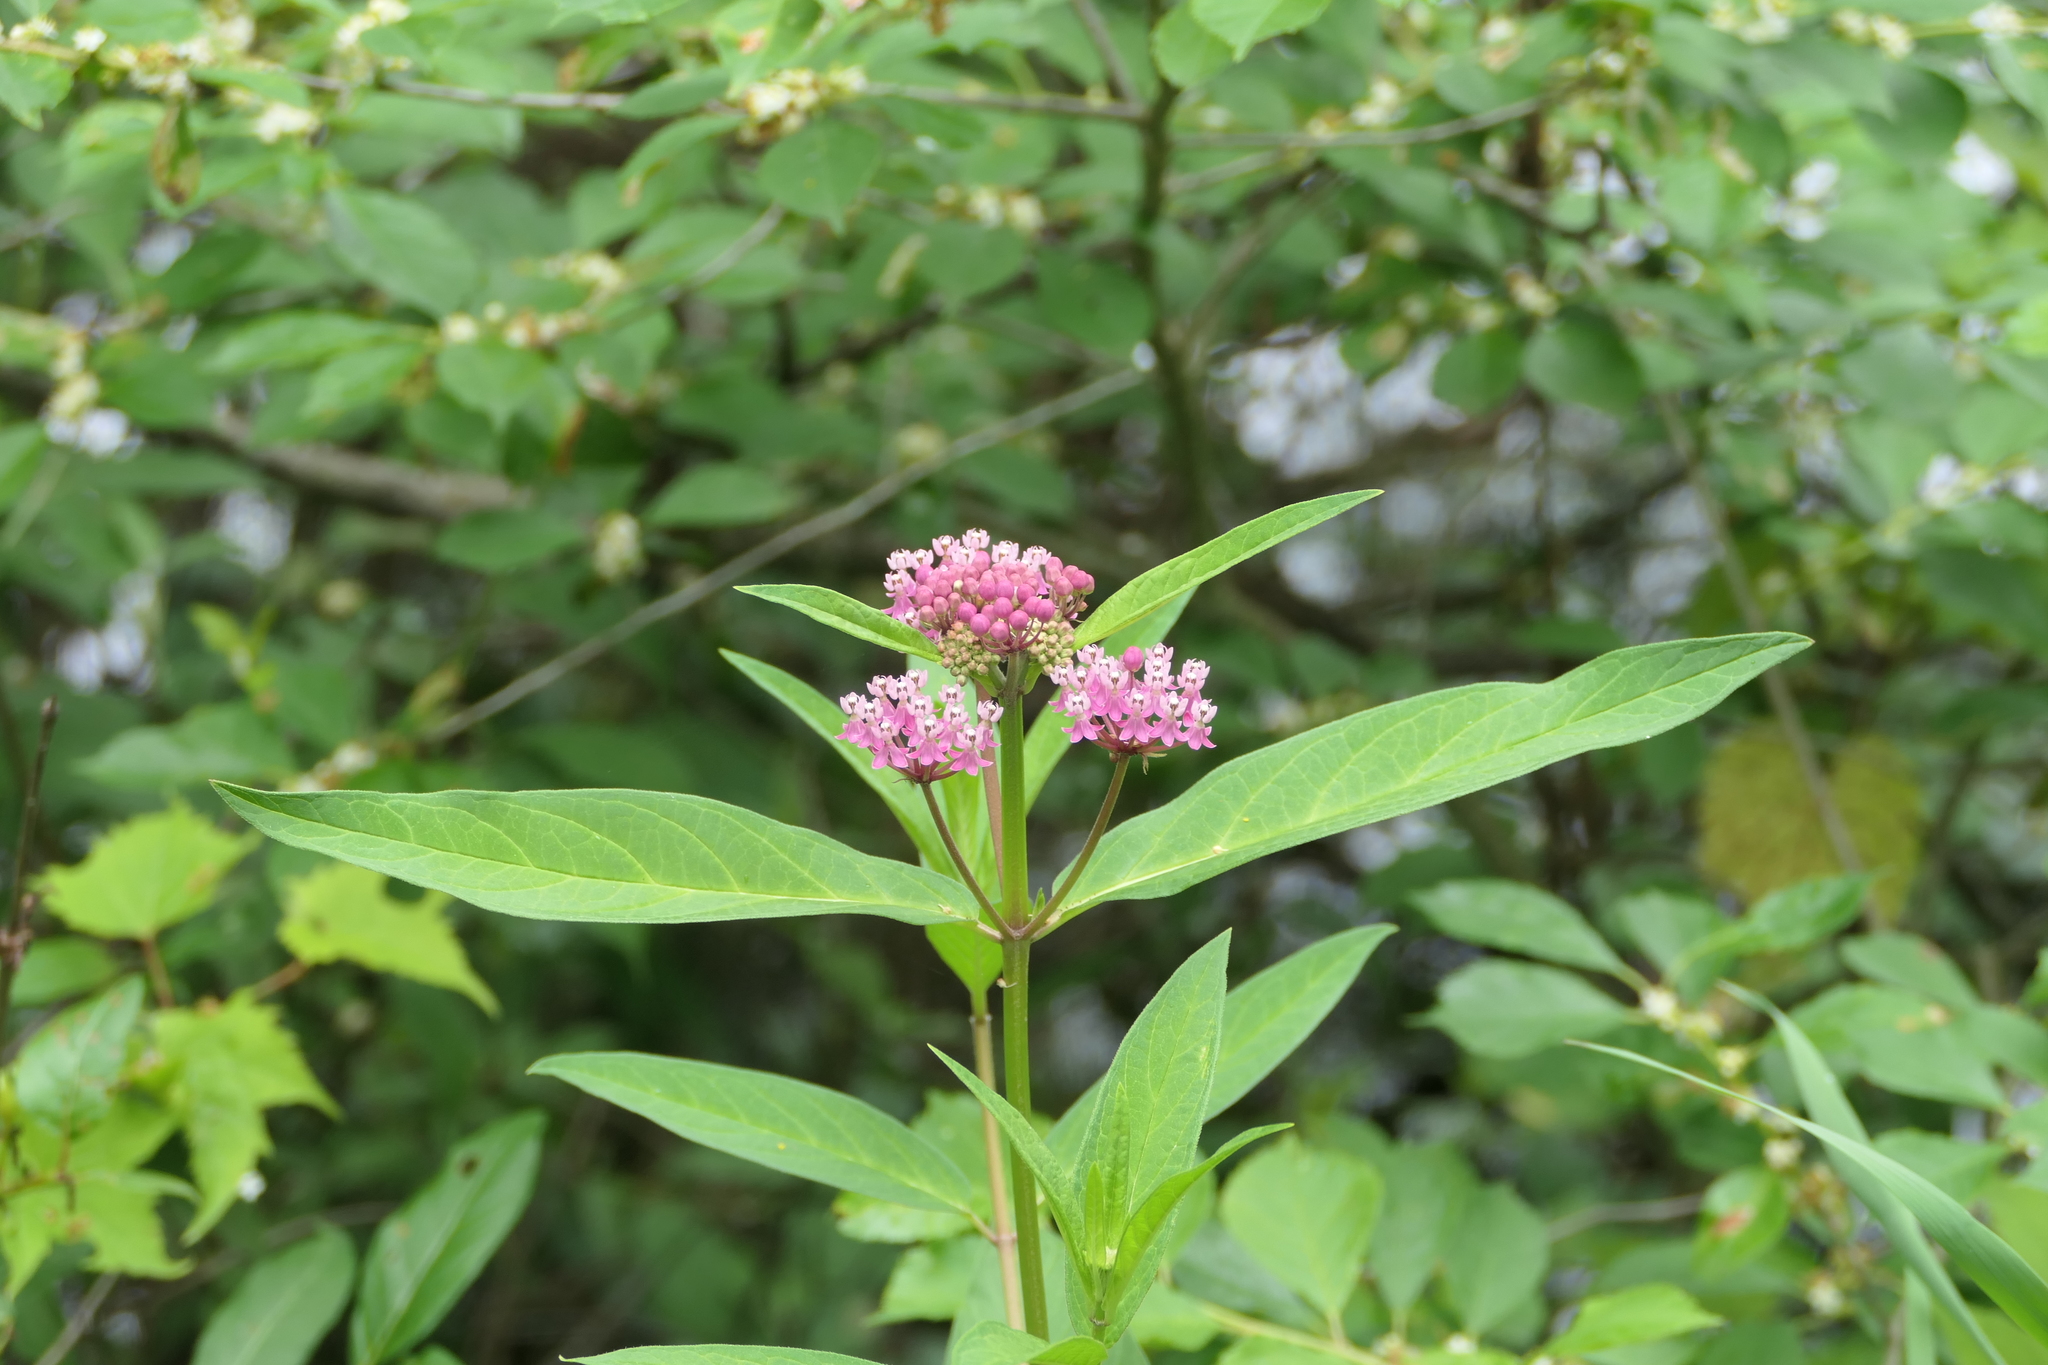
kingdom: Plantae
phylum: Tracheophyta
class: Magnoliopsida
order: Gentianales
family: Apocynaceae
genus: Asclepias
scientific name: Asclepias incarnata
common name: Swamp milkweed
